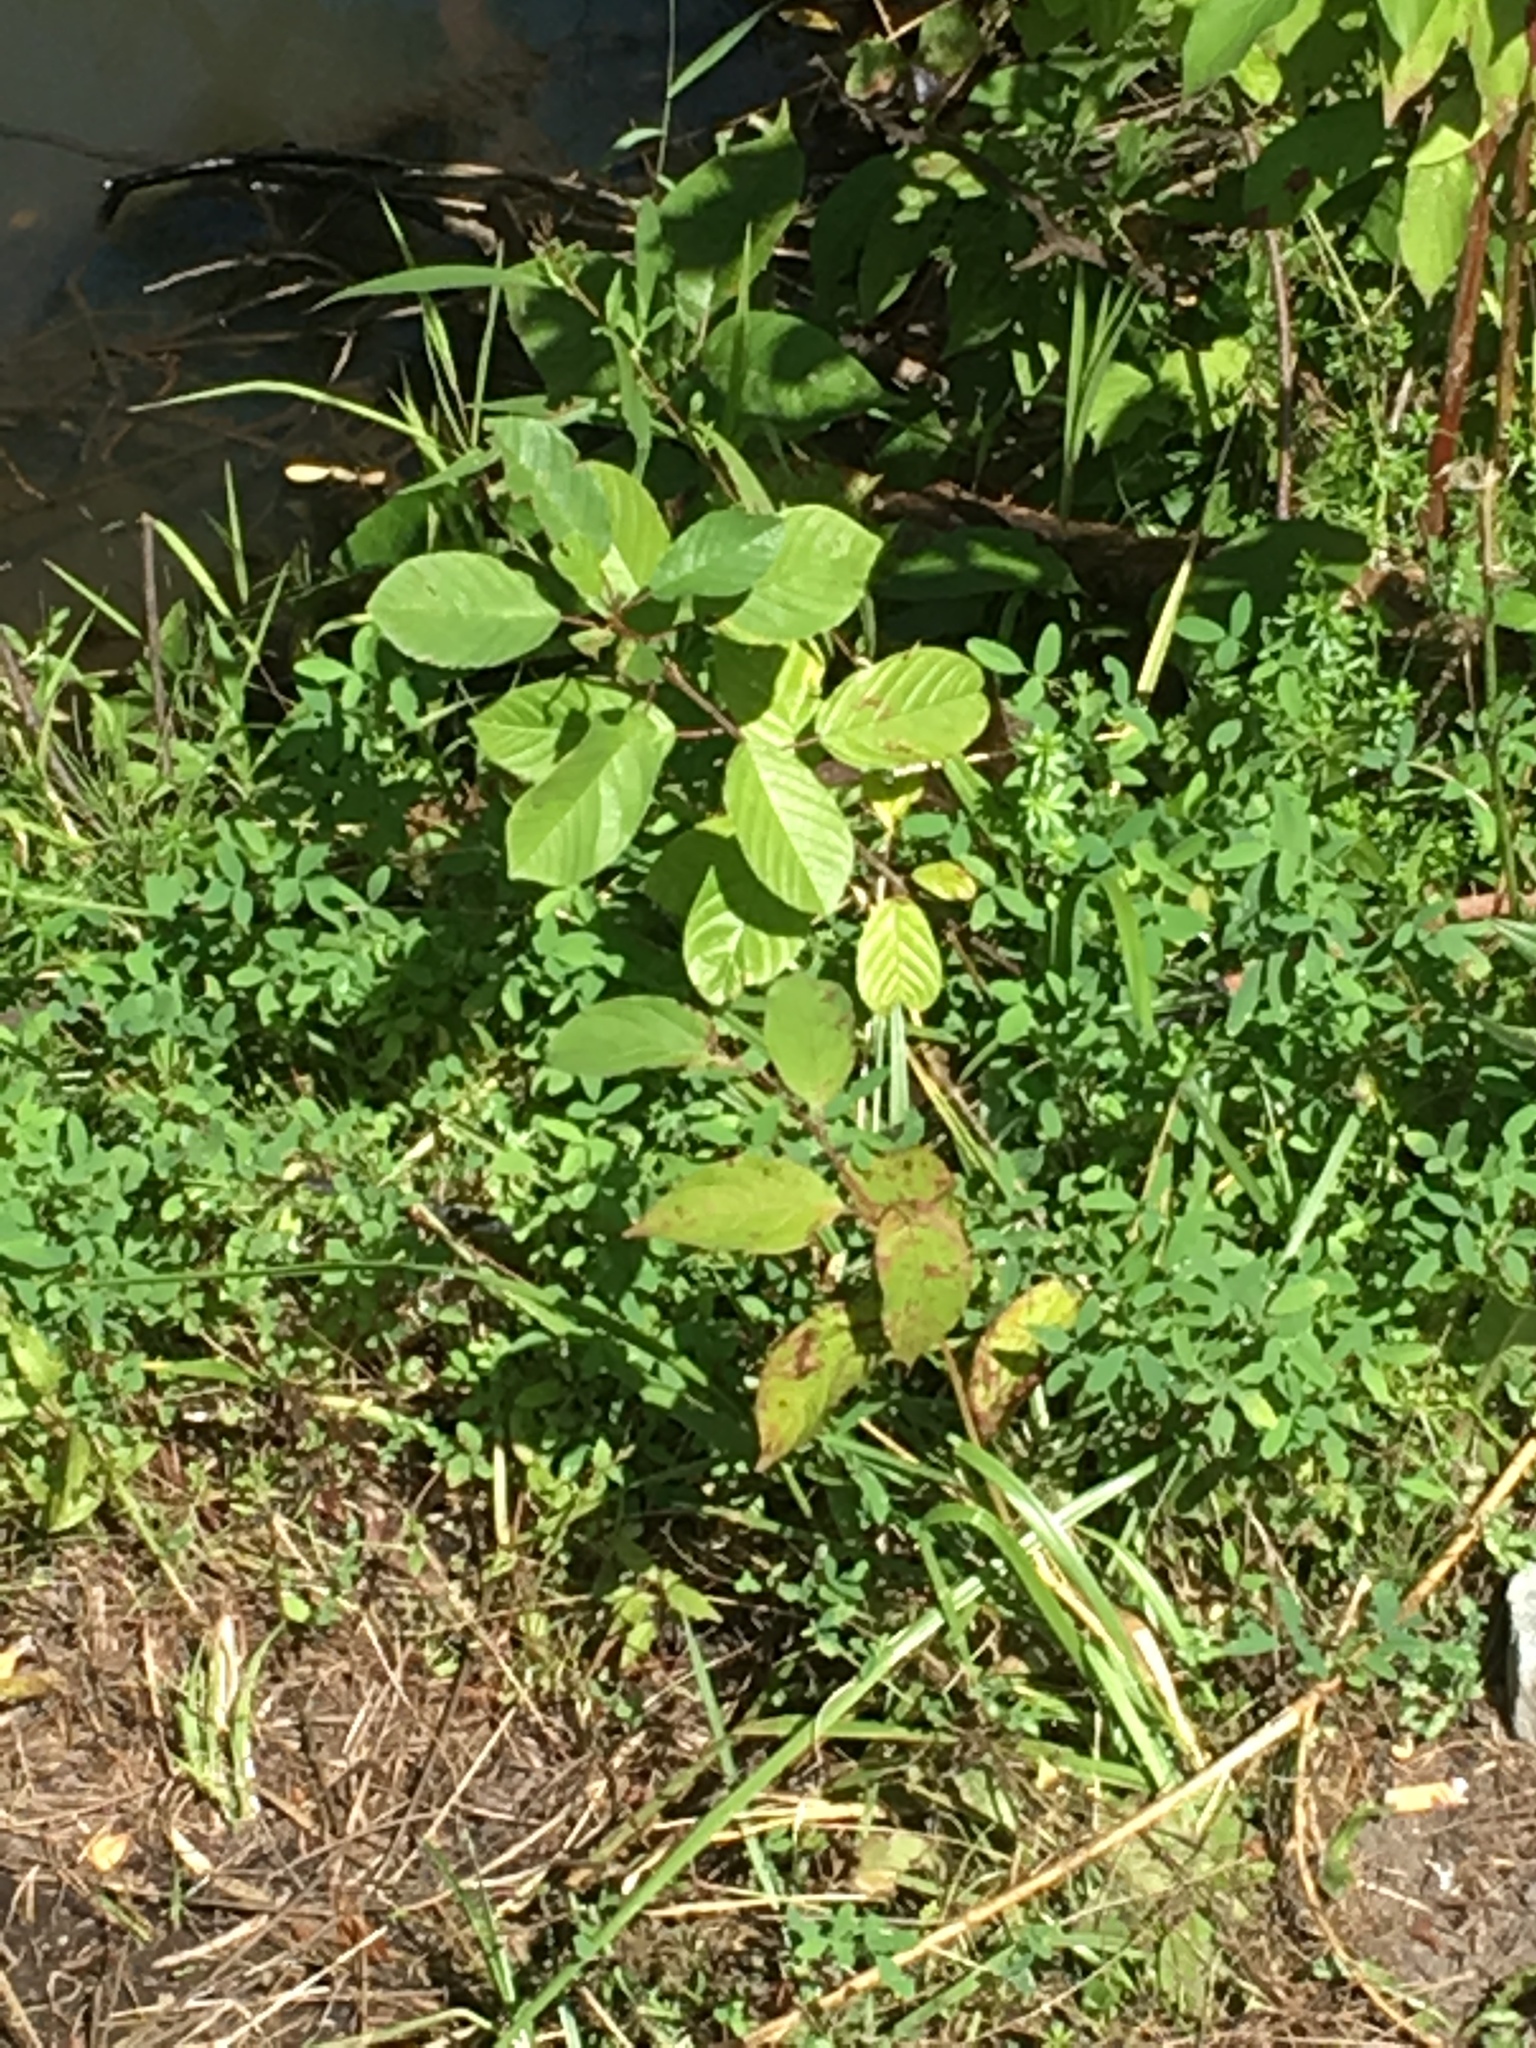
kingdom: Plantae
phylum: Tracheophyta
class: Magnoliopsida
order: Rosales
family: Rhamnaceae
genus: Frangula
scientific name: Frangula alnus
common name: Alder buckthorn
